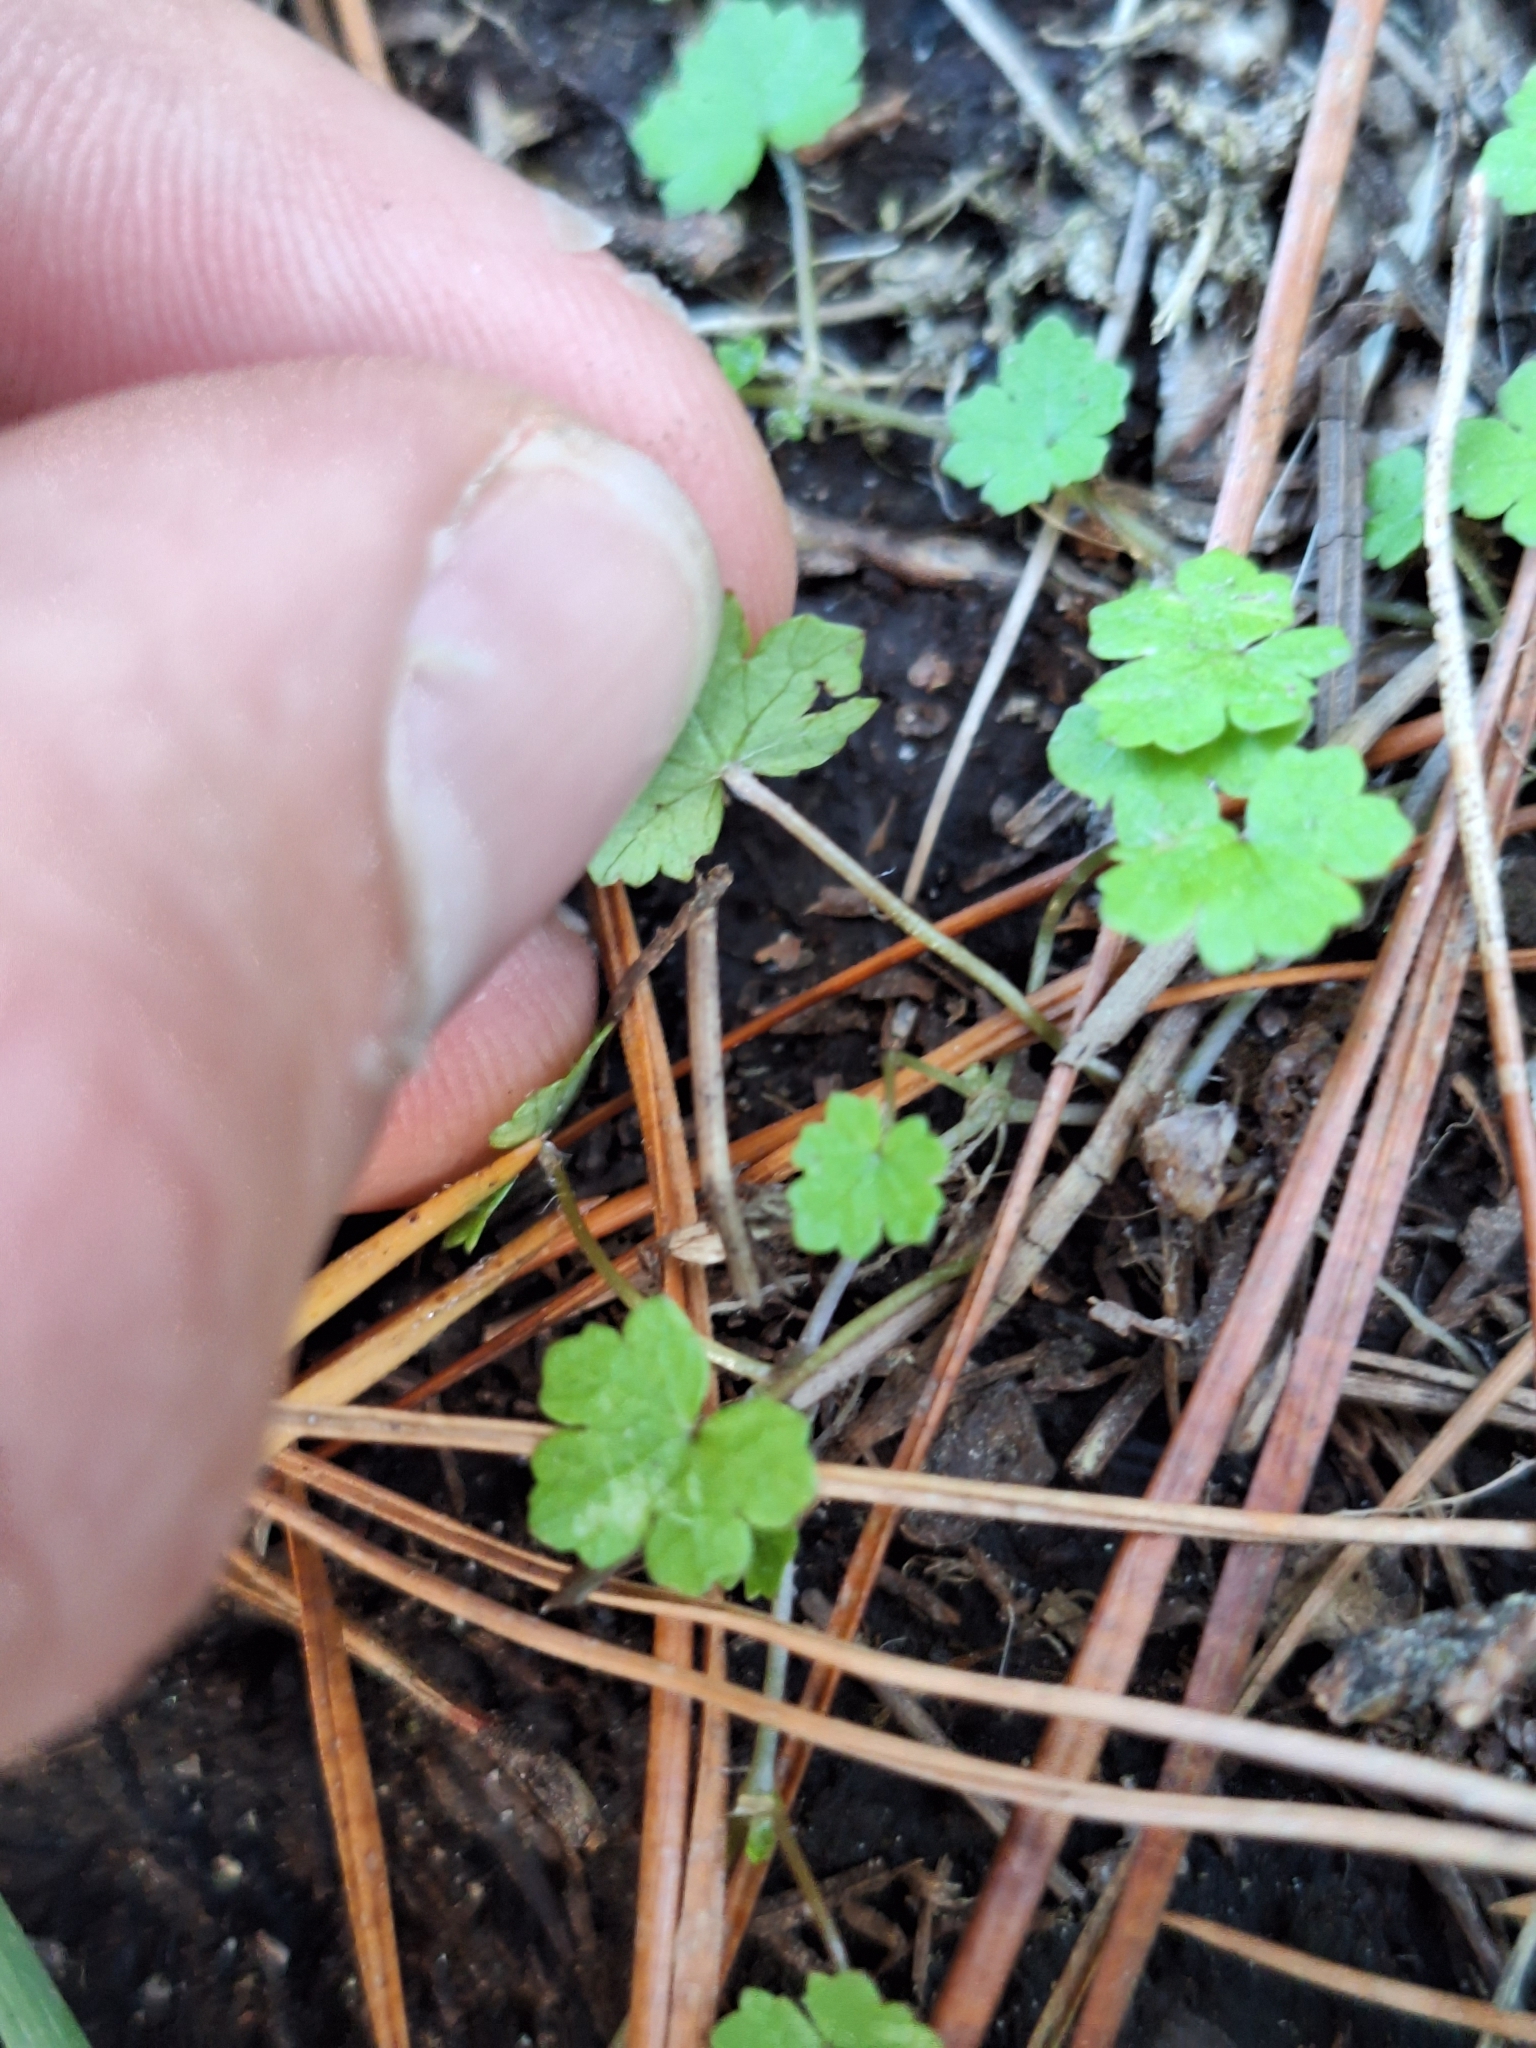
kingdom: Plantae
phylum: Tracheophyta
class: Magnoliopsida
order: Apiales
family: Araliaceae
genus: Hydrocotyle
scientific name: Hydrocotyle heteromeria
